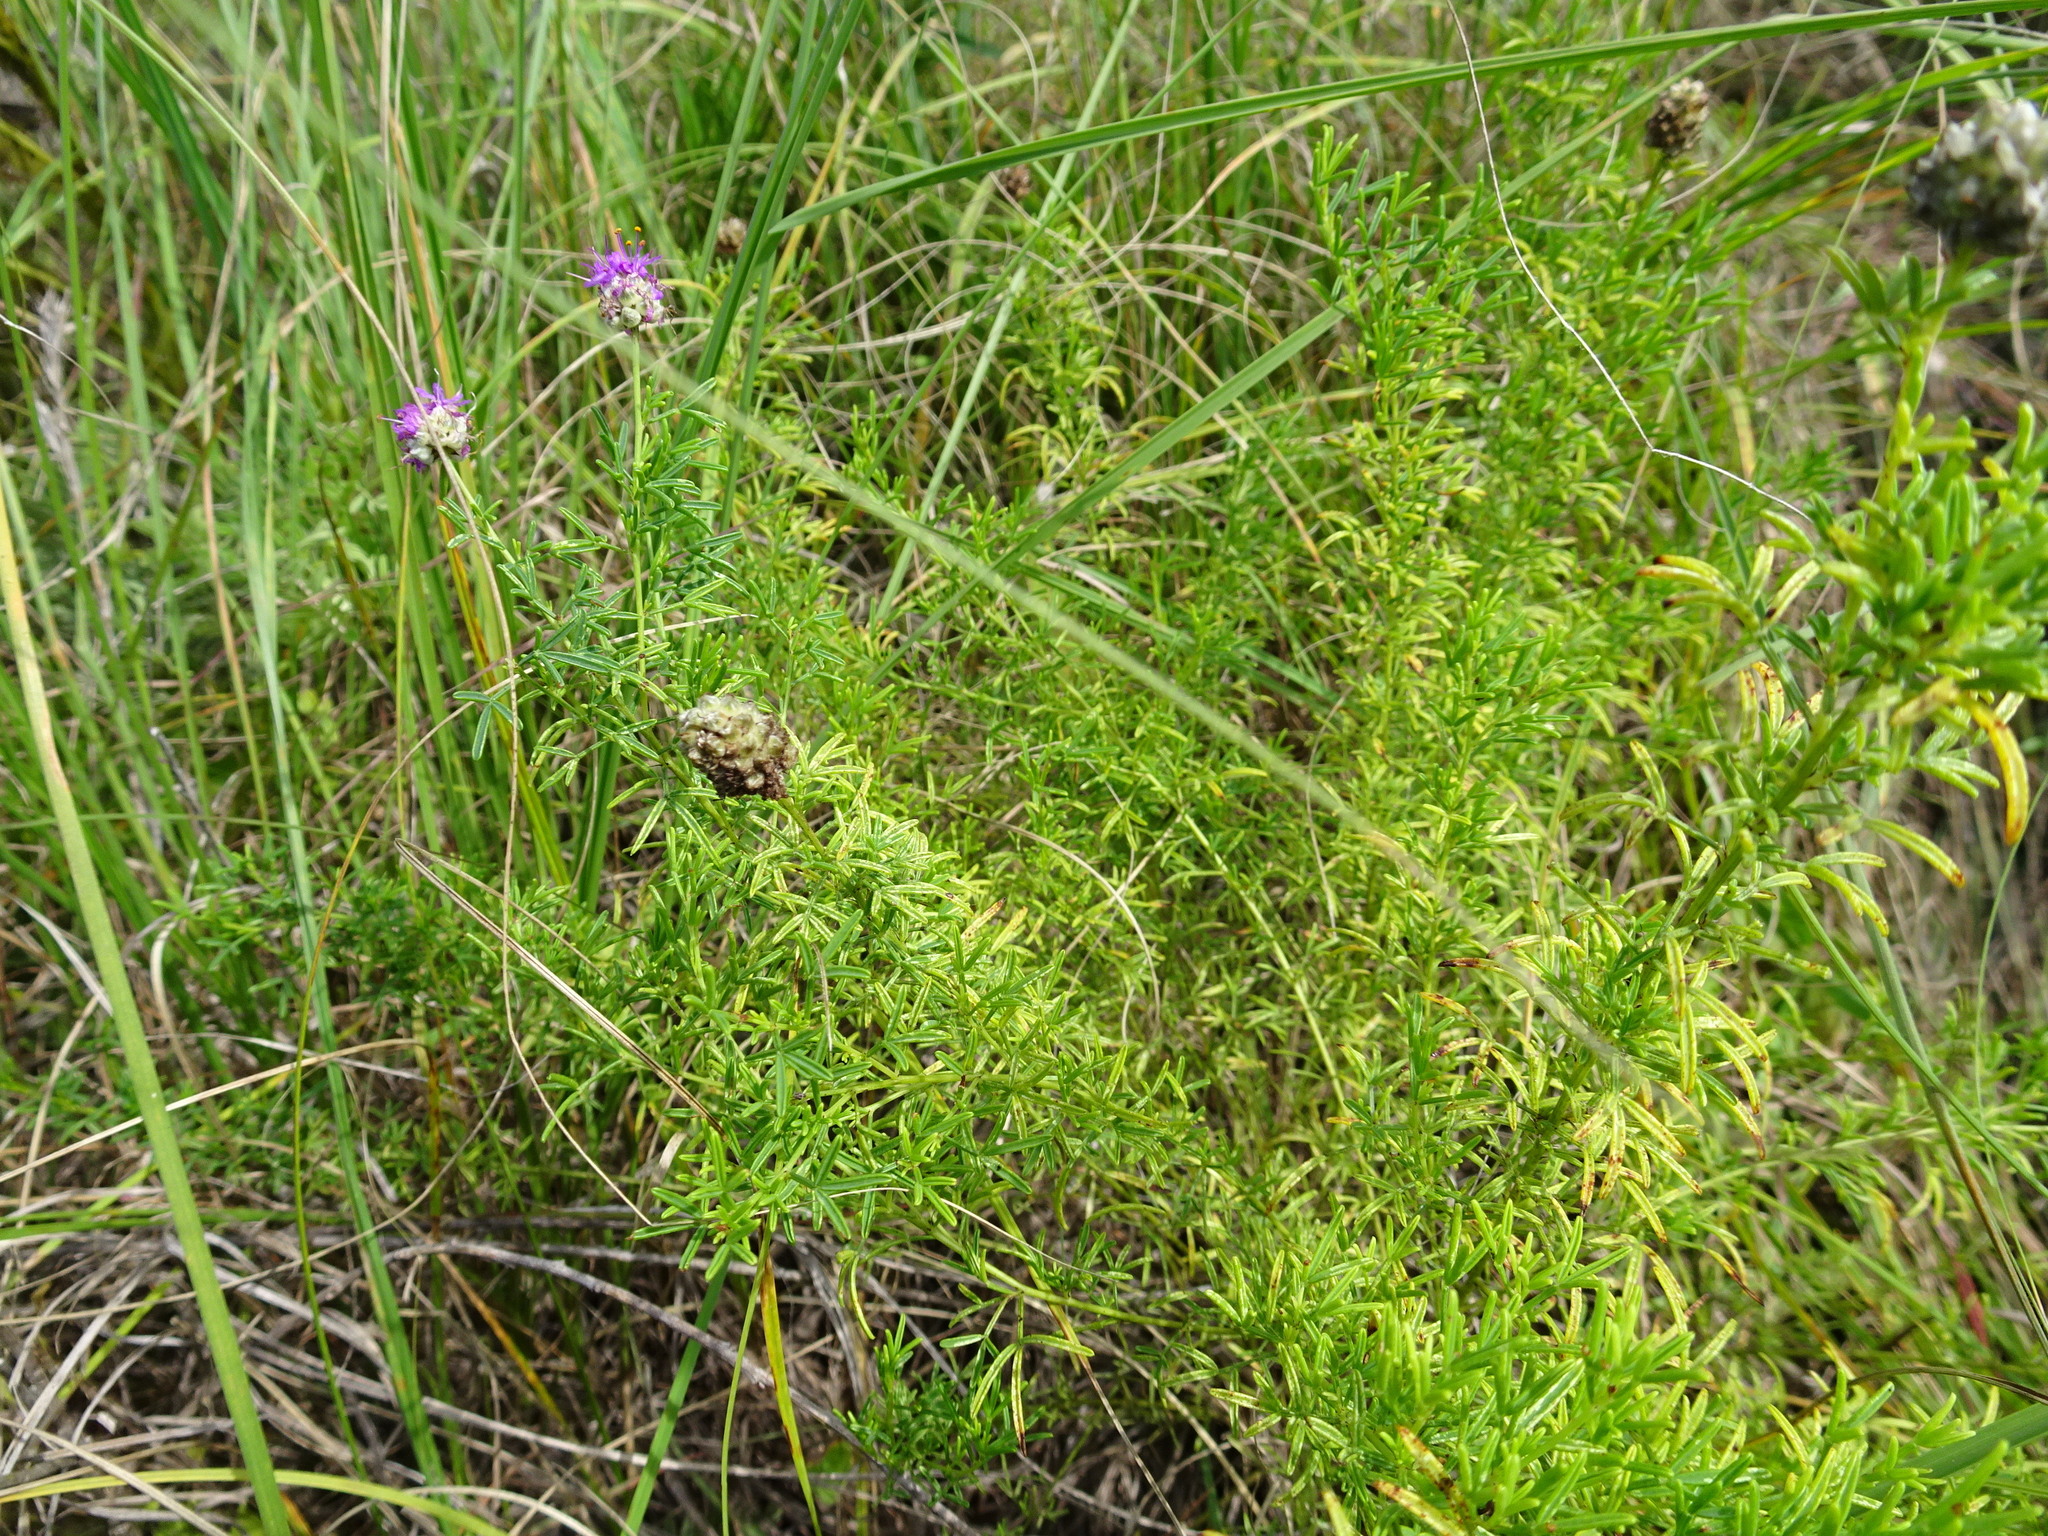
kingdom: Plantae
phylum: Tracheophyta
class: Magnoliopsida
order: Fabales
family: Fabaceae
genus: Dalea
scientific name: Dalea purpurea
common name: Purple prairie-clover
